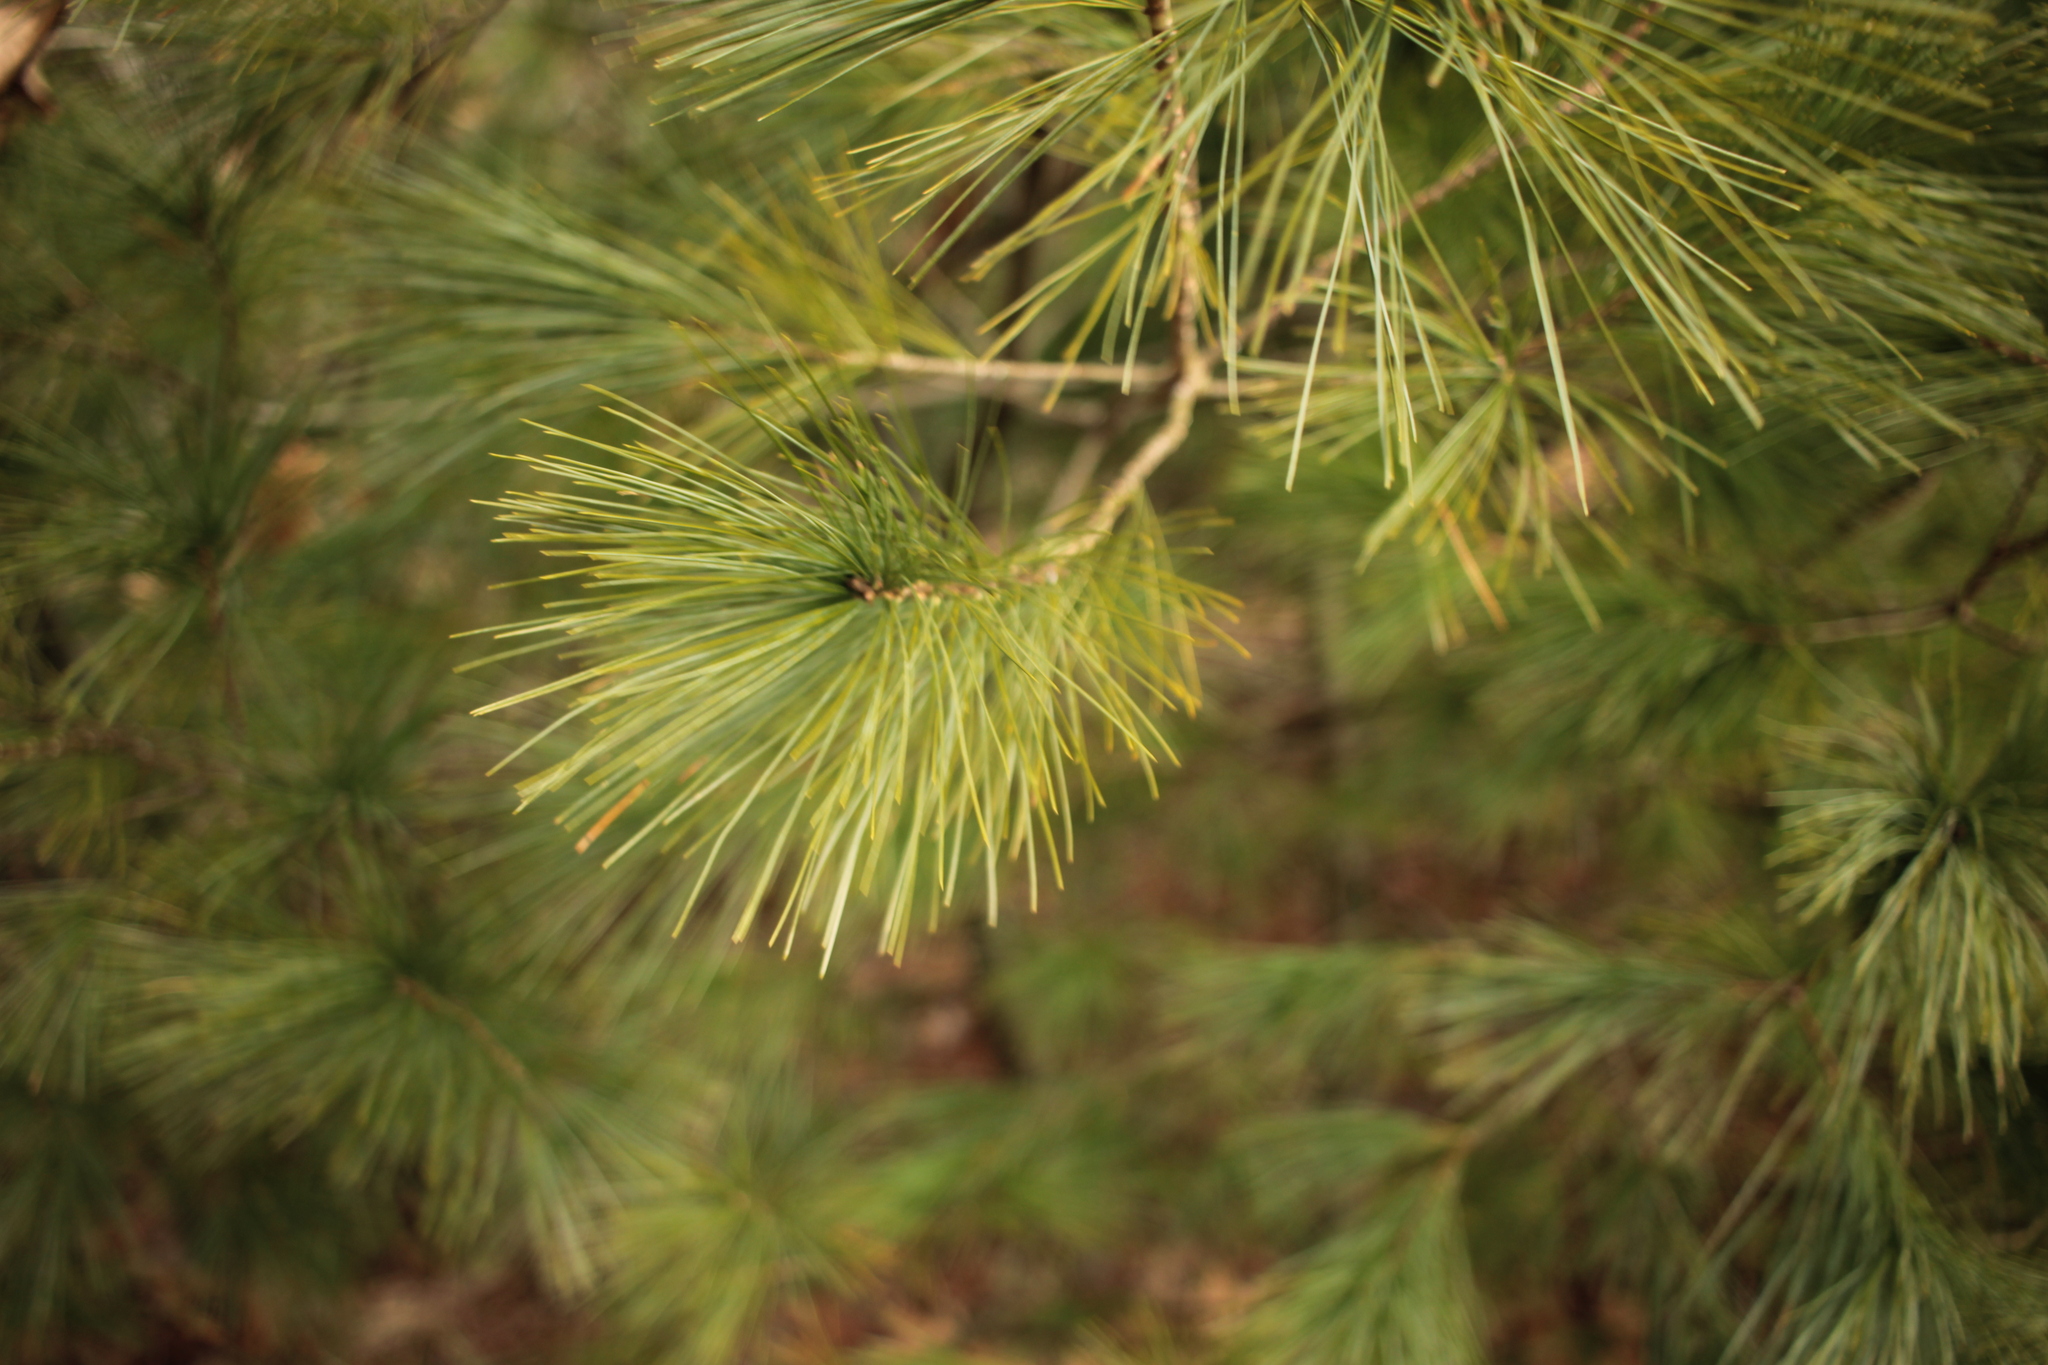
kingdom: Plantae
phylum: Tracheophyta
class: Pinopsida
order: Pinales
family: Pinaceae
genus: Pinus
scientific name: Pinus strobus
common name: Weymouth pine
